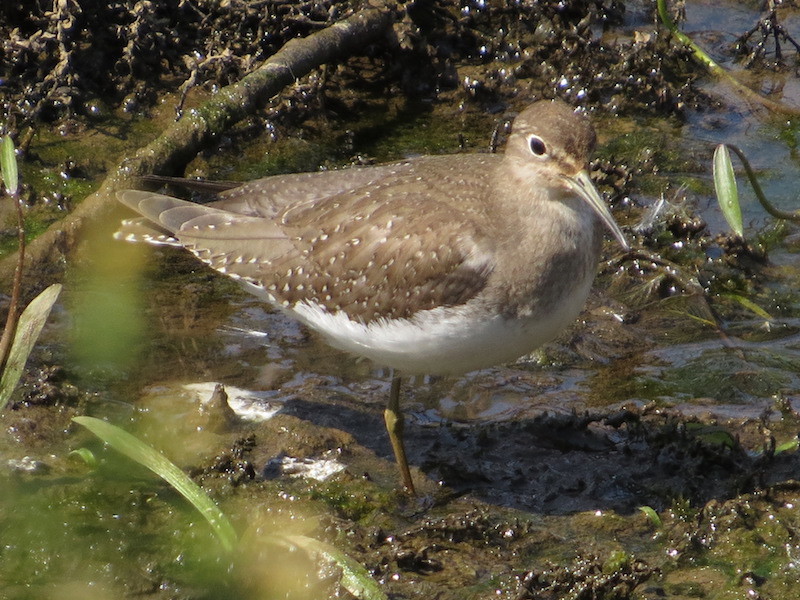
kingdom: Animalia
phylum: Chordata
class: Aves
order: Charadriiformes
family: Scolopacidae
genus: Tringa
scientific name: Tringa solitaria
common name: Solitary sandpiper
